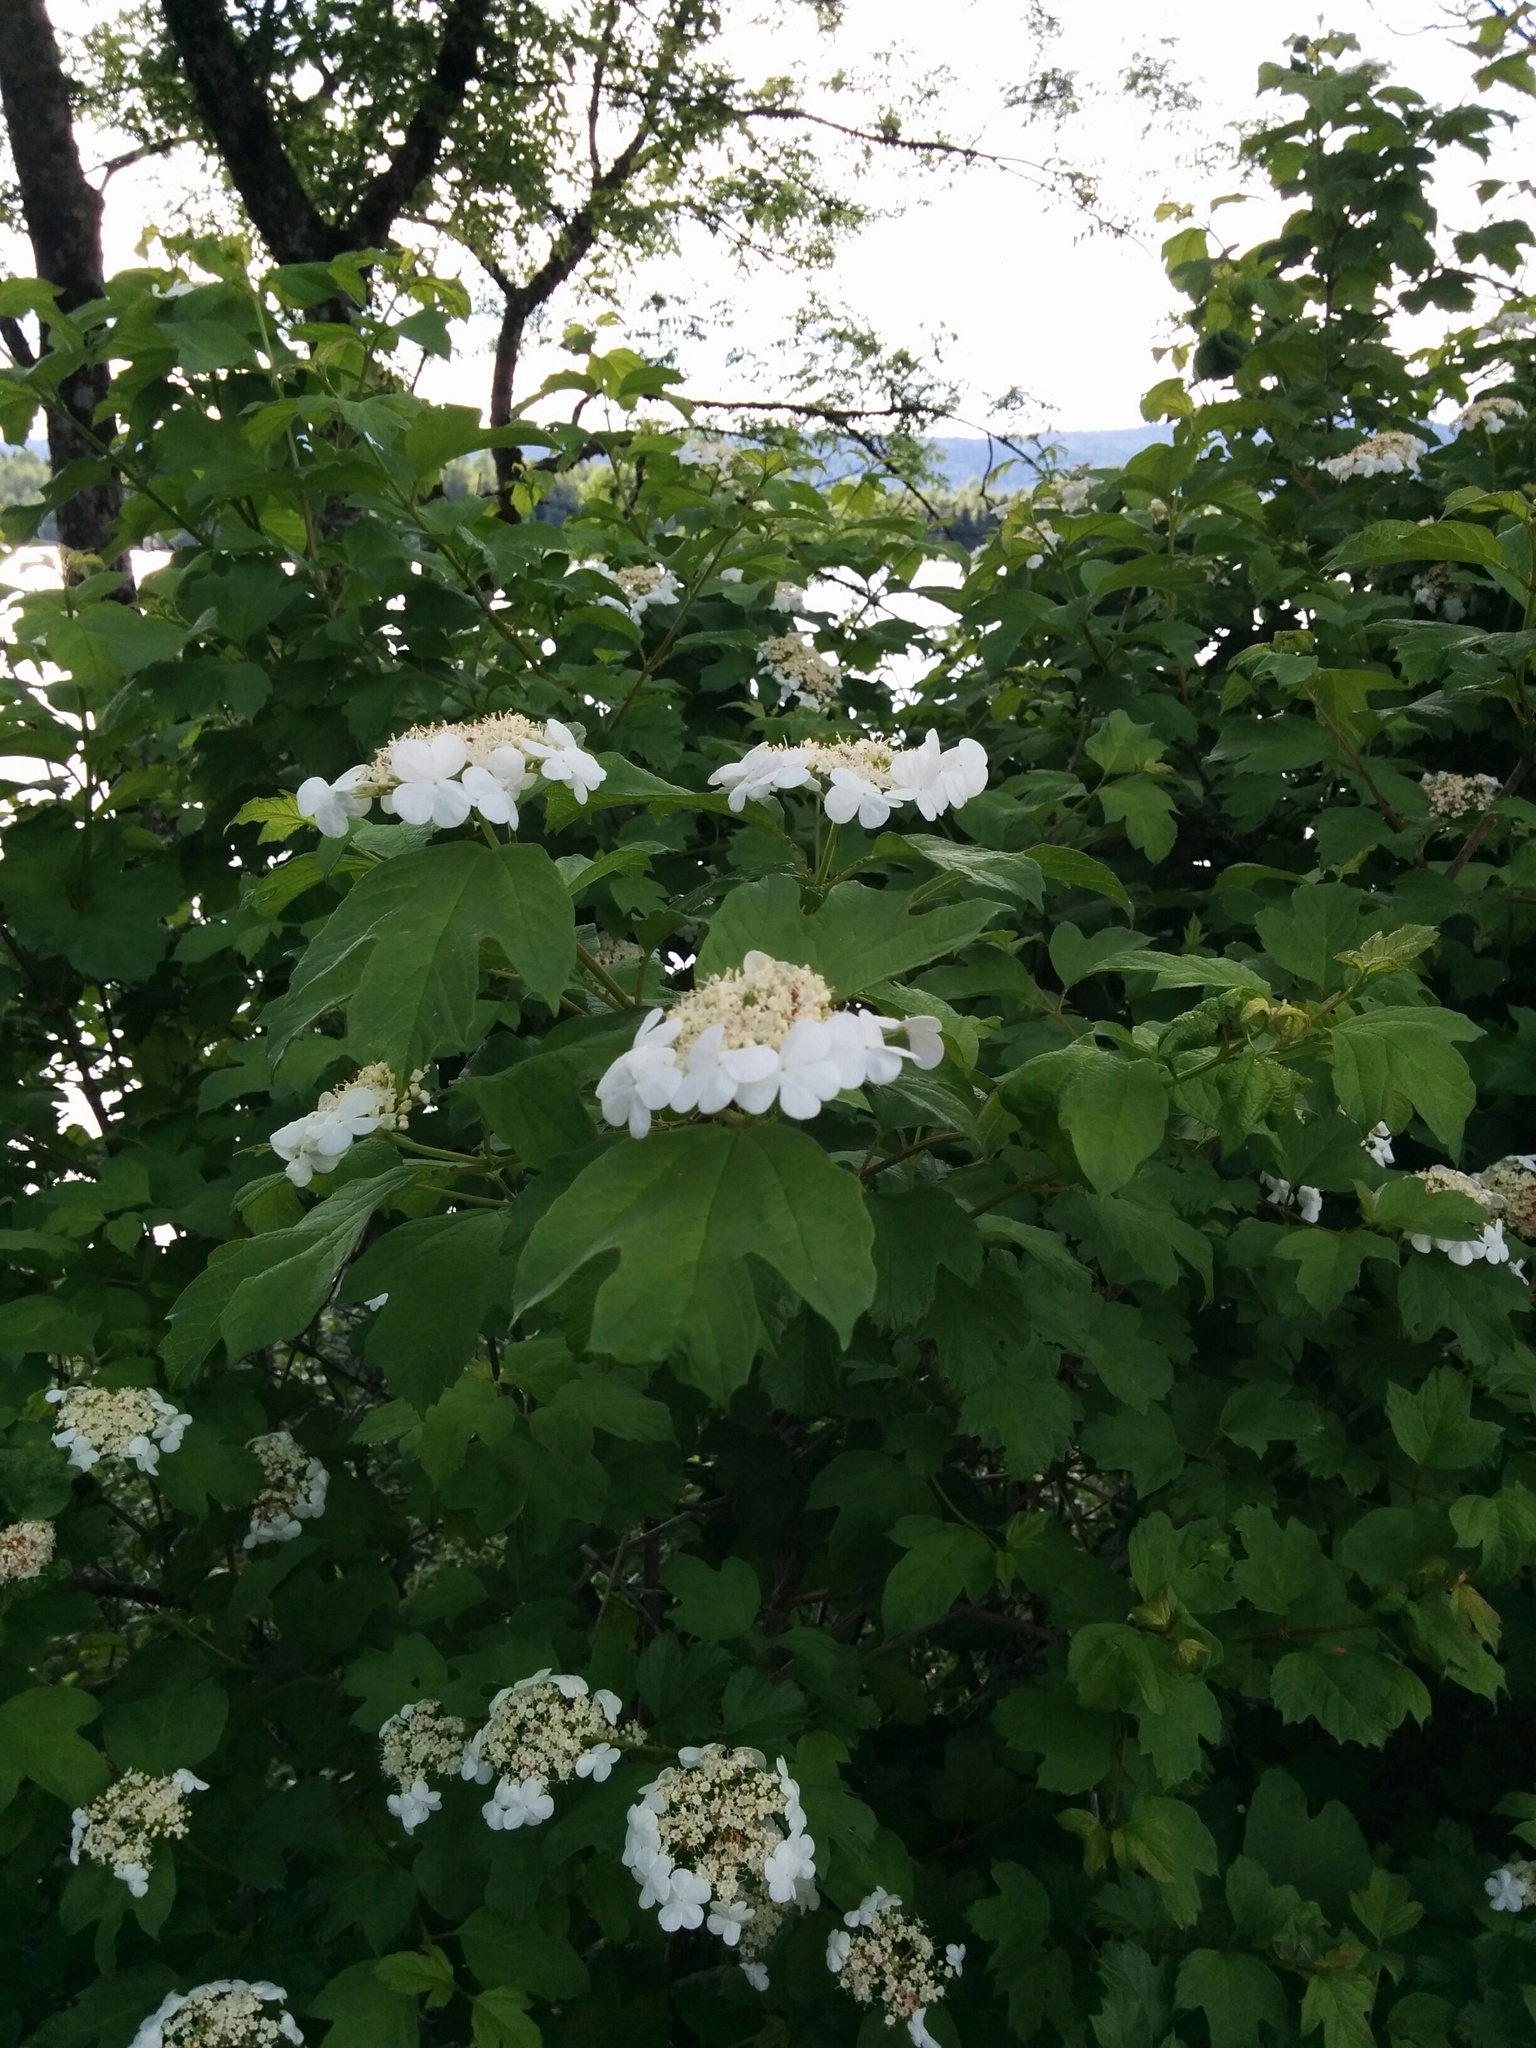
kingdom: Plantae
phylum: Tracheophyta
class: Magnoliopsida
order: Dipsacales
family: Viburnaceae
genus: Viburnum
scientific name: Viburnum opulus
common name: Guelder-rose
